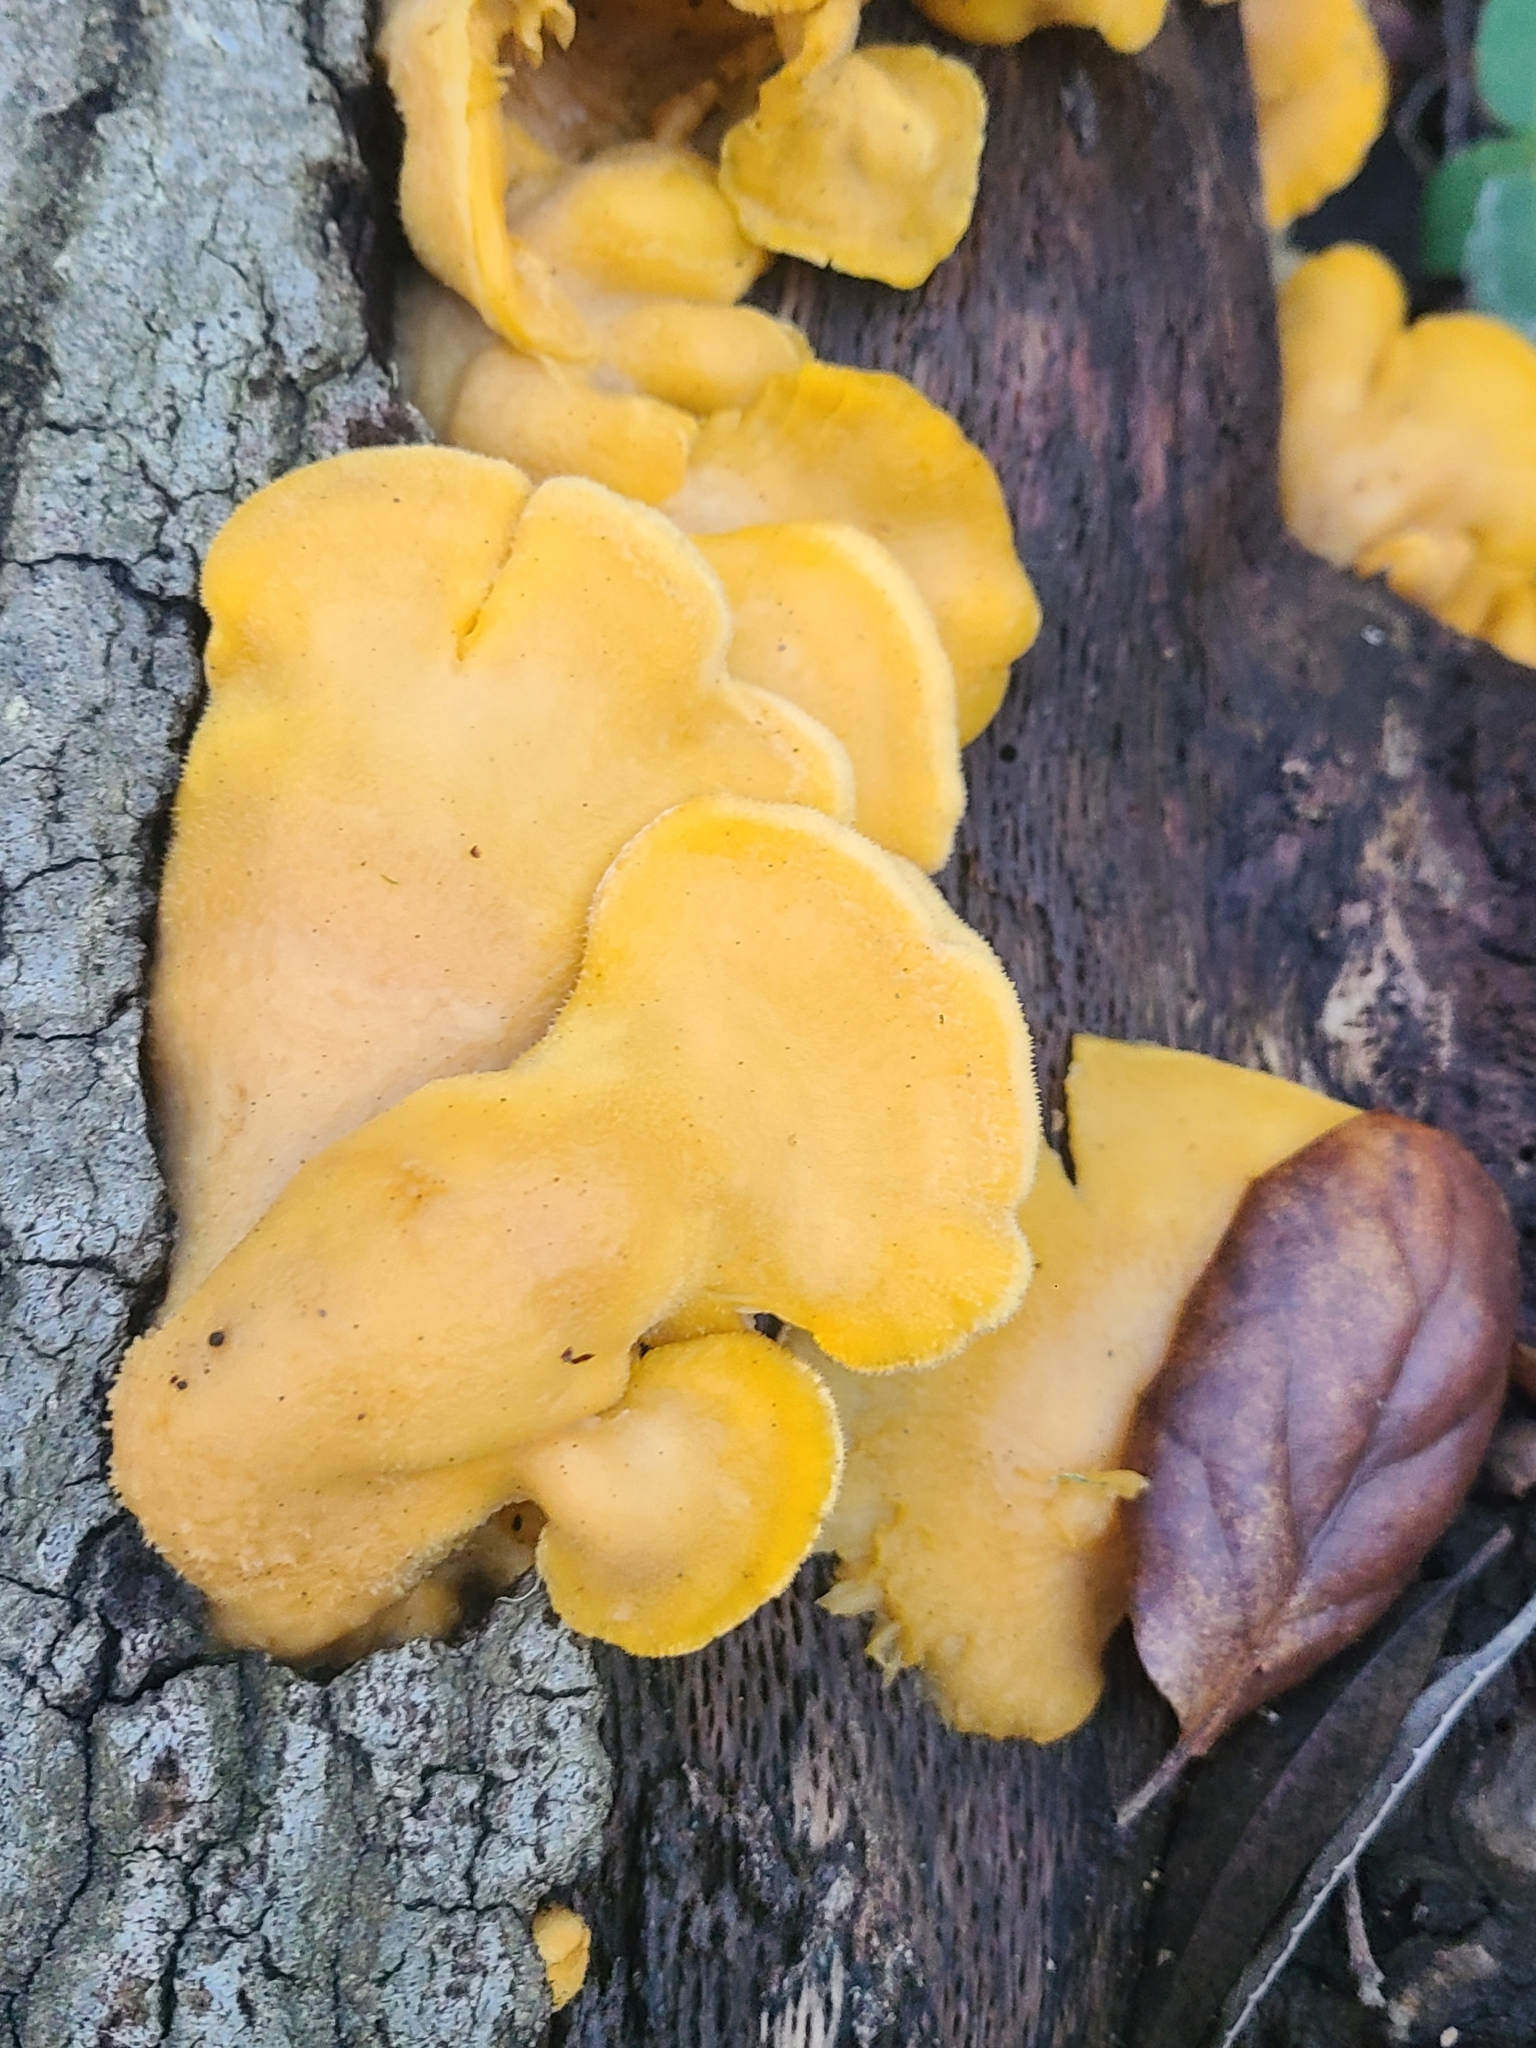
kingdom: Fungi
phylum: Basidiomycota
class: Agaricomycetes
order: Agaricales
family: Phyllotopsidaceae
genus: Phyllotopsis
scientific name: Phyllotopsis nidulans
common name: Orange mock oyster
